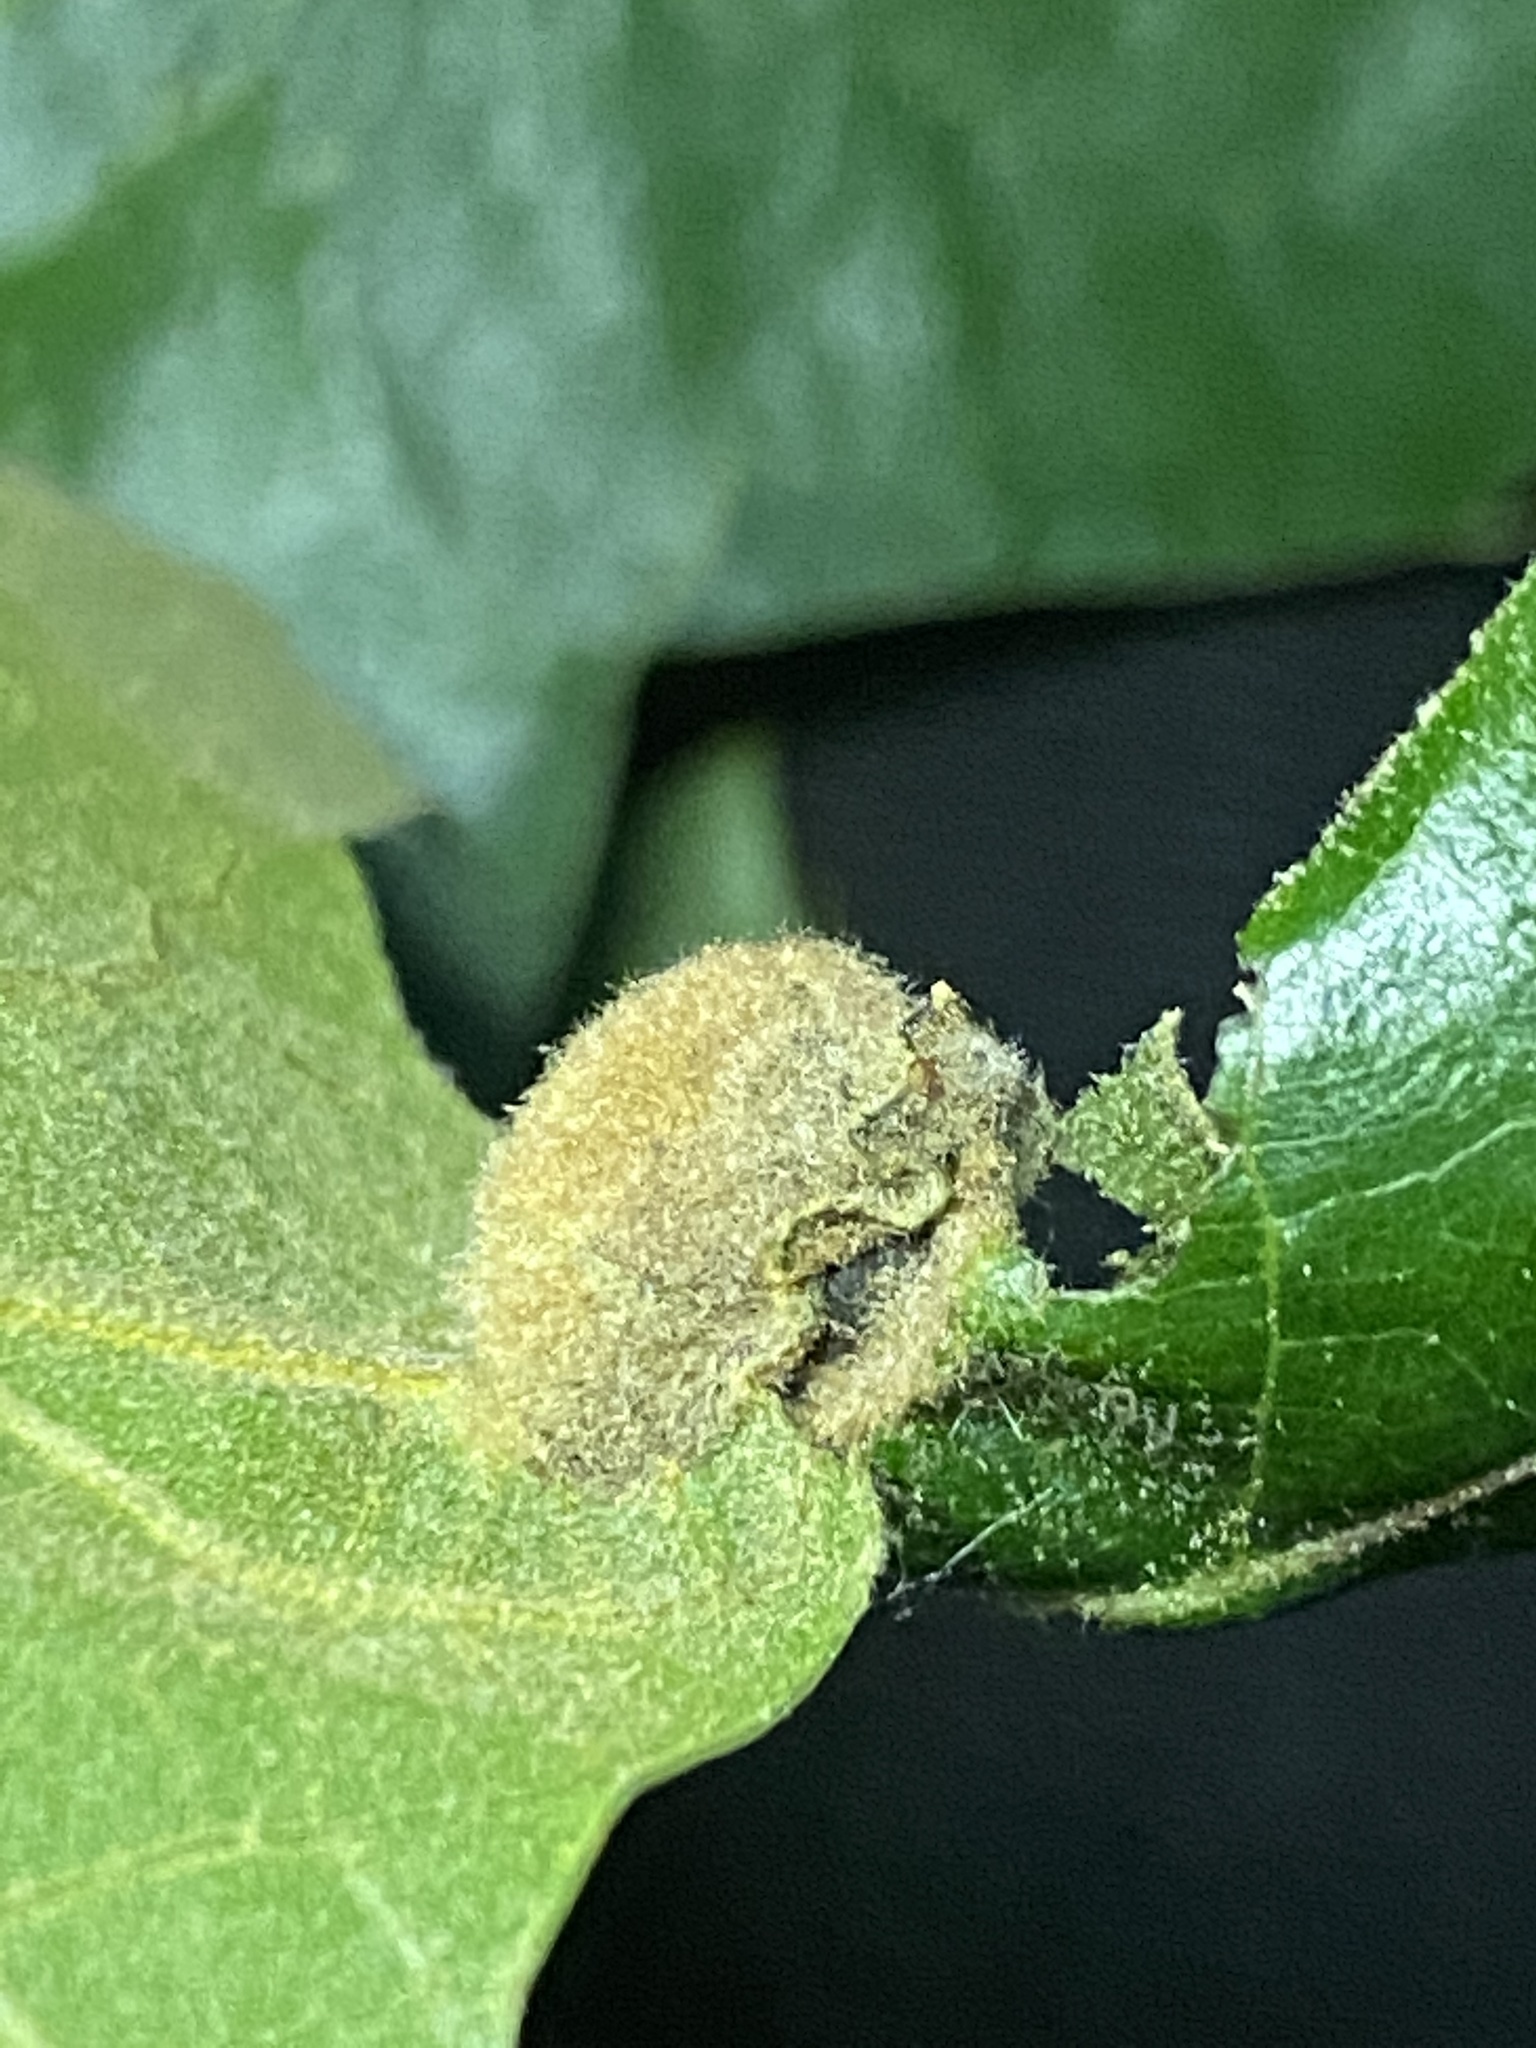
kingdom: Animalia
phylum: Arthropoda
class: Insecta
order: Diptera
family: Cecidomyiidae
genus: Macrodiplosis
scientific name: Macrodiplosis niveipila
